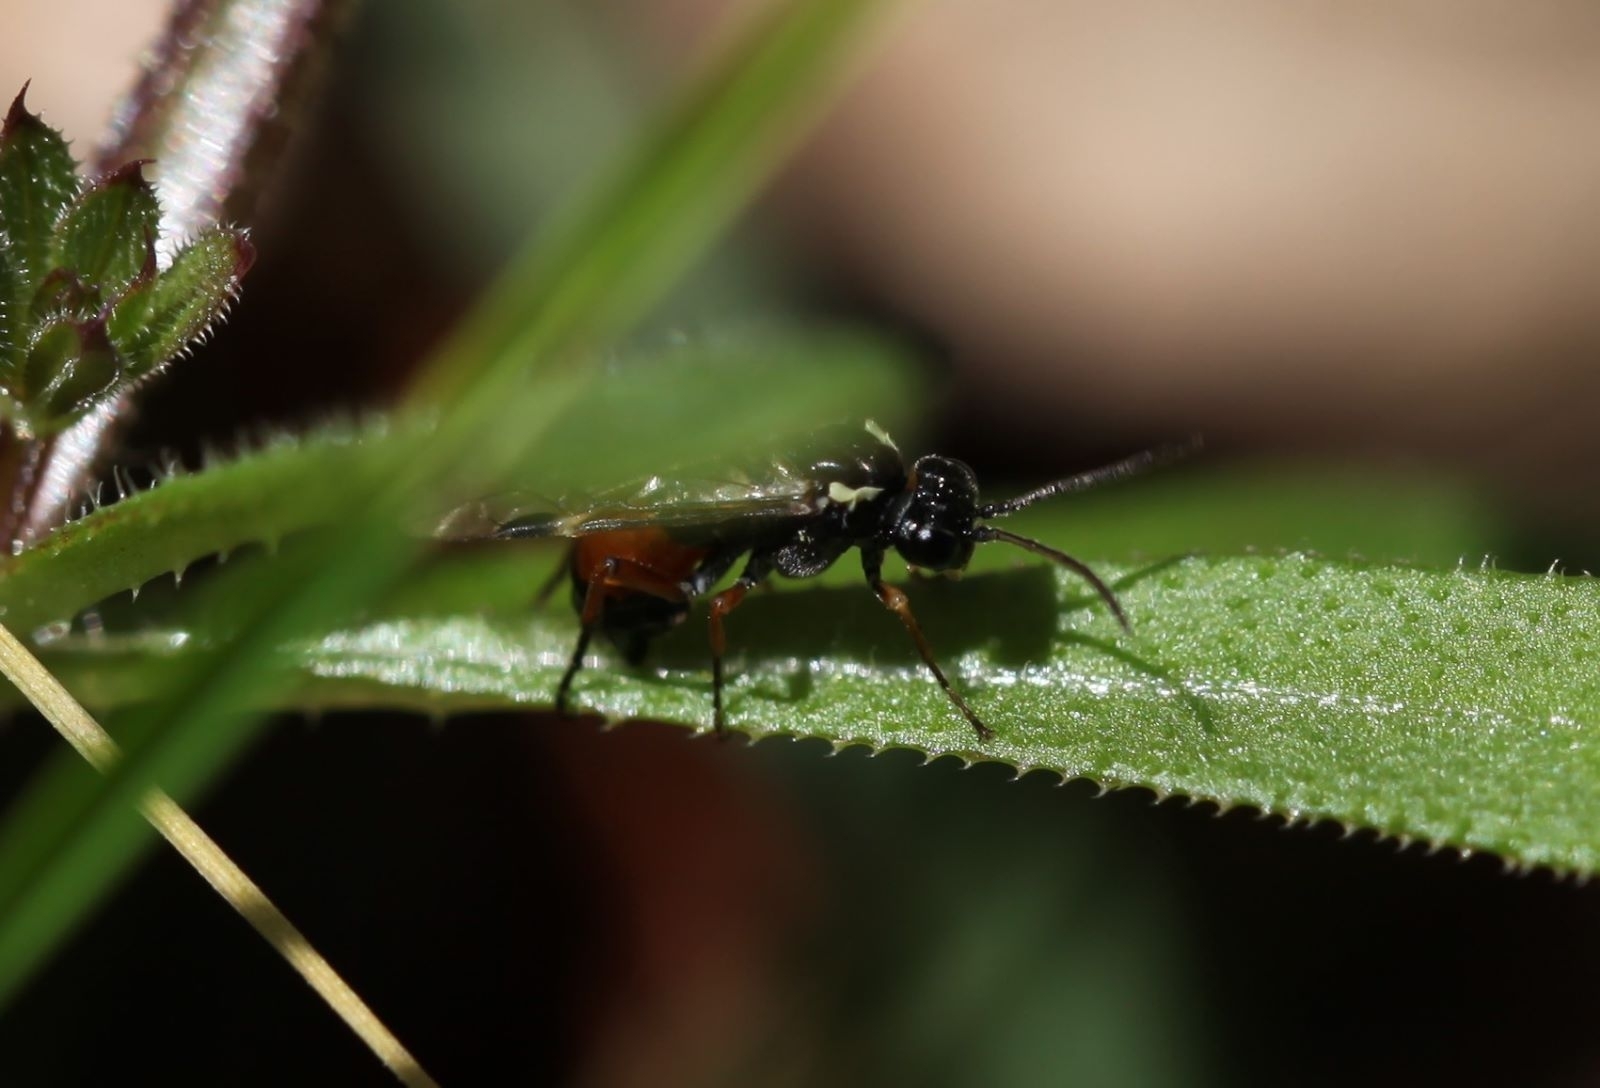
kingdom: Animalia
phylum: Arthropoda
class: Insecta
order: Hymenoptera
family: Tenthredinidae
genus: Aglaostigma
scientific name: Aglaostigma aucupariae
